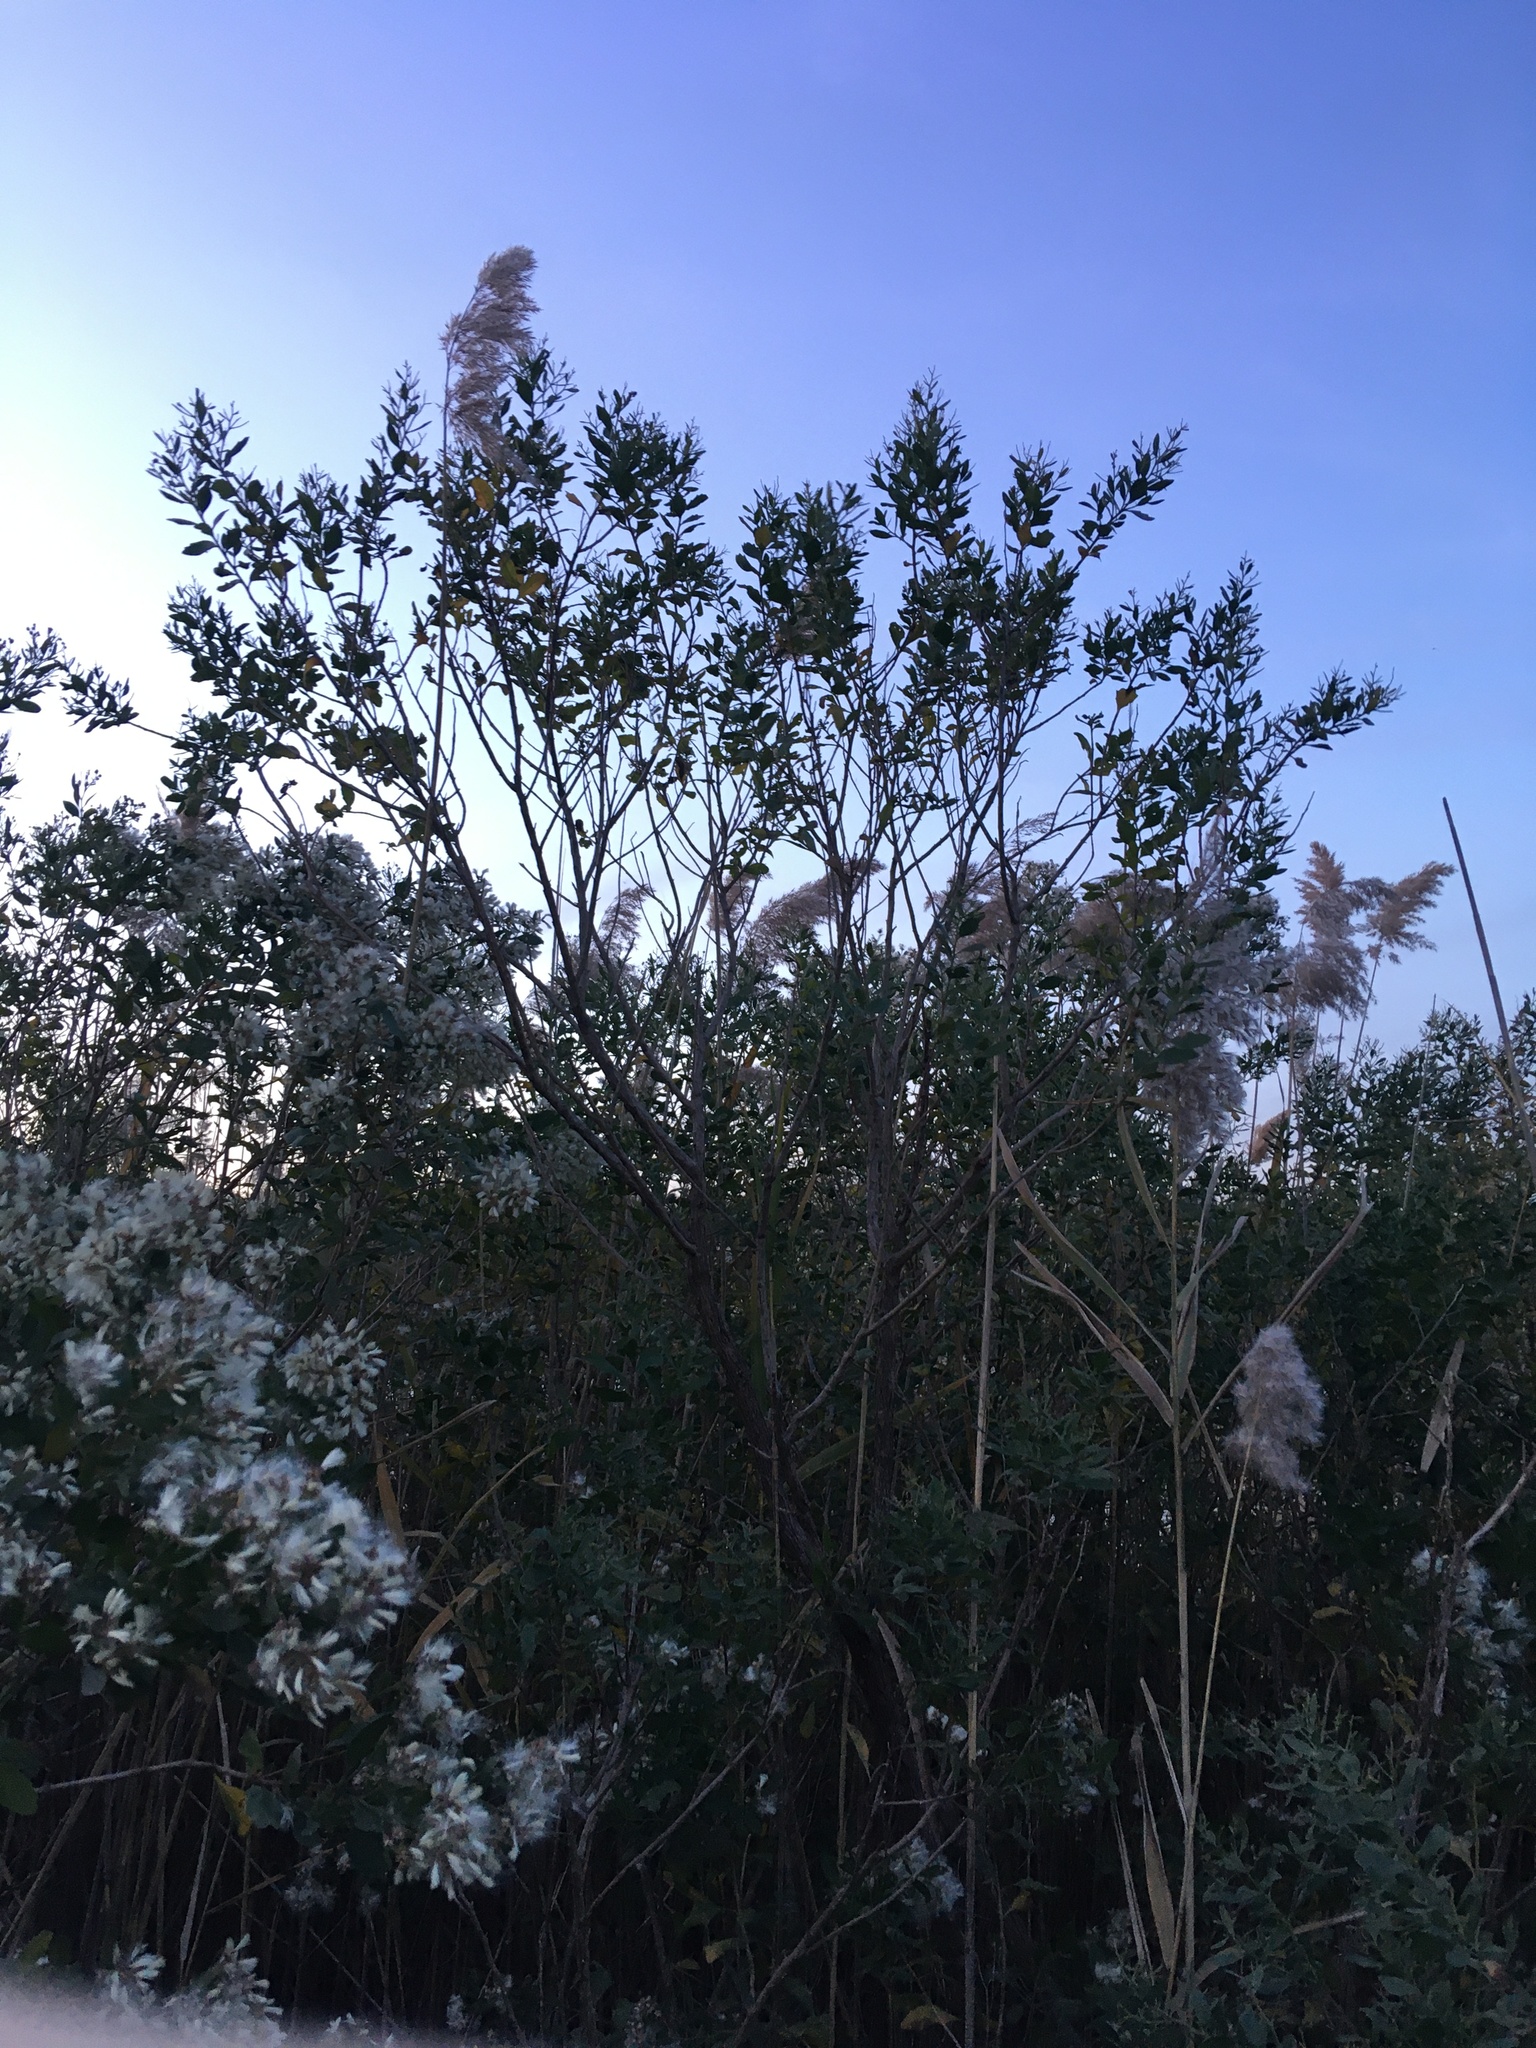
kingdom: Plantae
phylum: Tracheophyta
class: Magnoliopsida
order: Asterales
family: Asteraceae
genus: Baccharis
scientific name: Baccharis halimifolia
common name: Eastern baccharis
